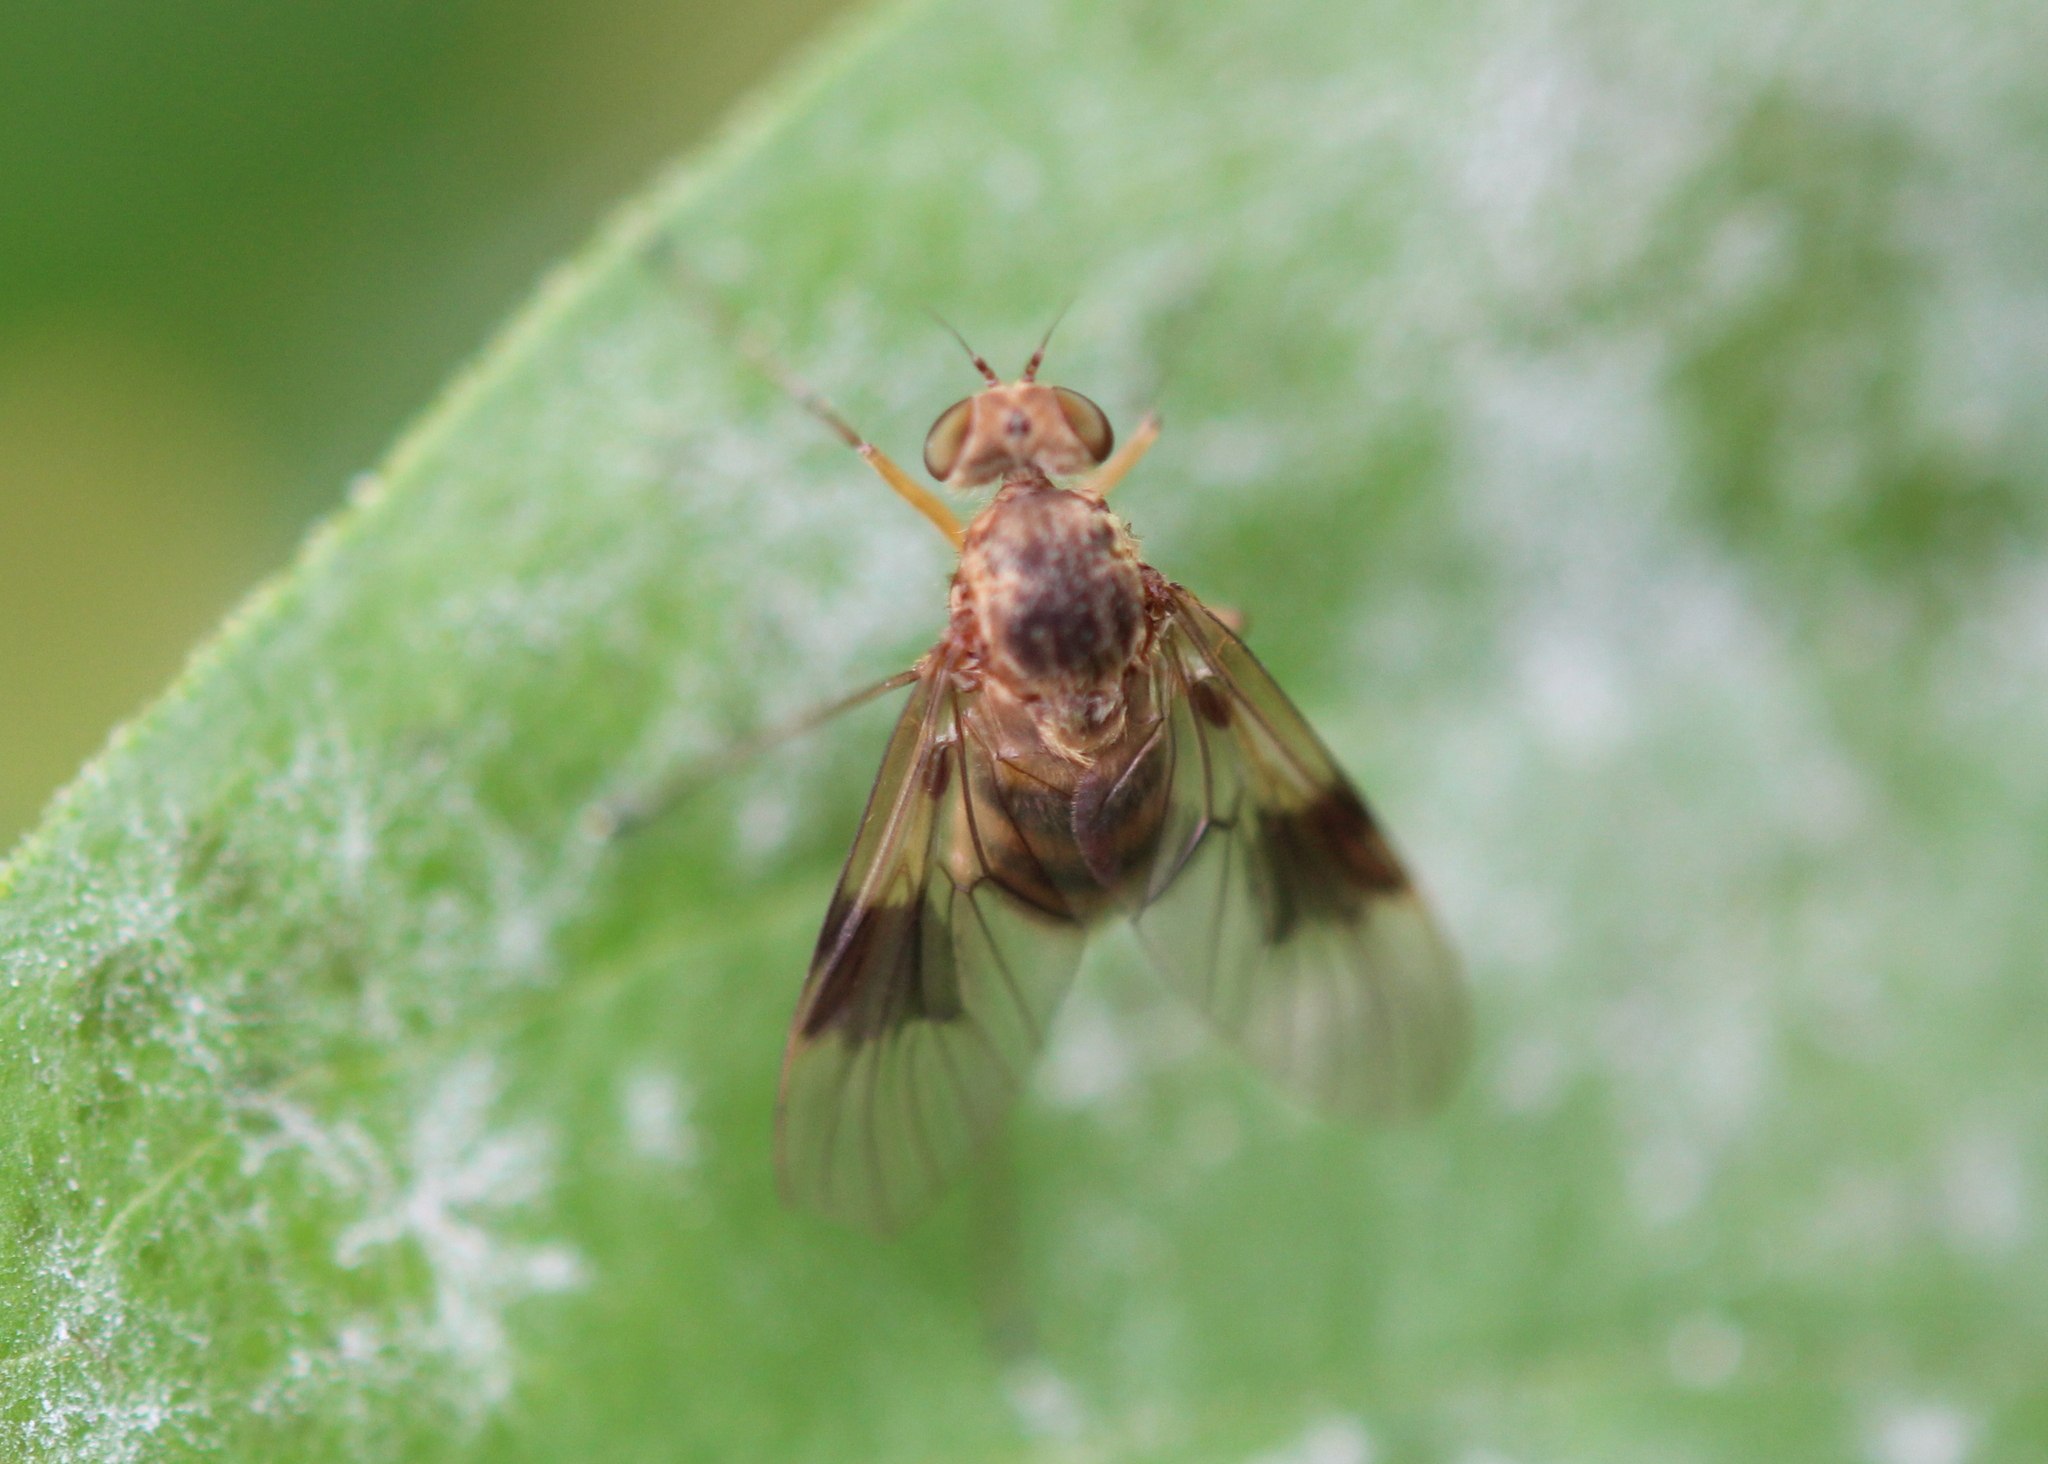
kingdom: Animalia
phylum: Arthropoda
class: Insecta
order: Diptera
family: Rhagionidae
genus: Chrysopilus
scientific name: Chrysopilus quadratus
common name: Quadrate snipe fly
